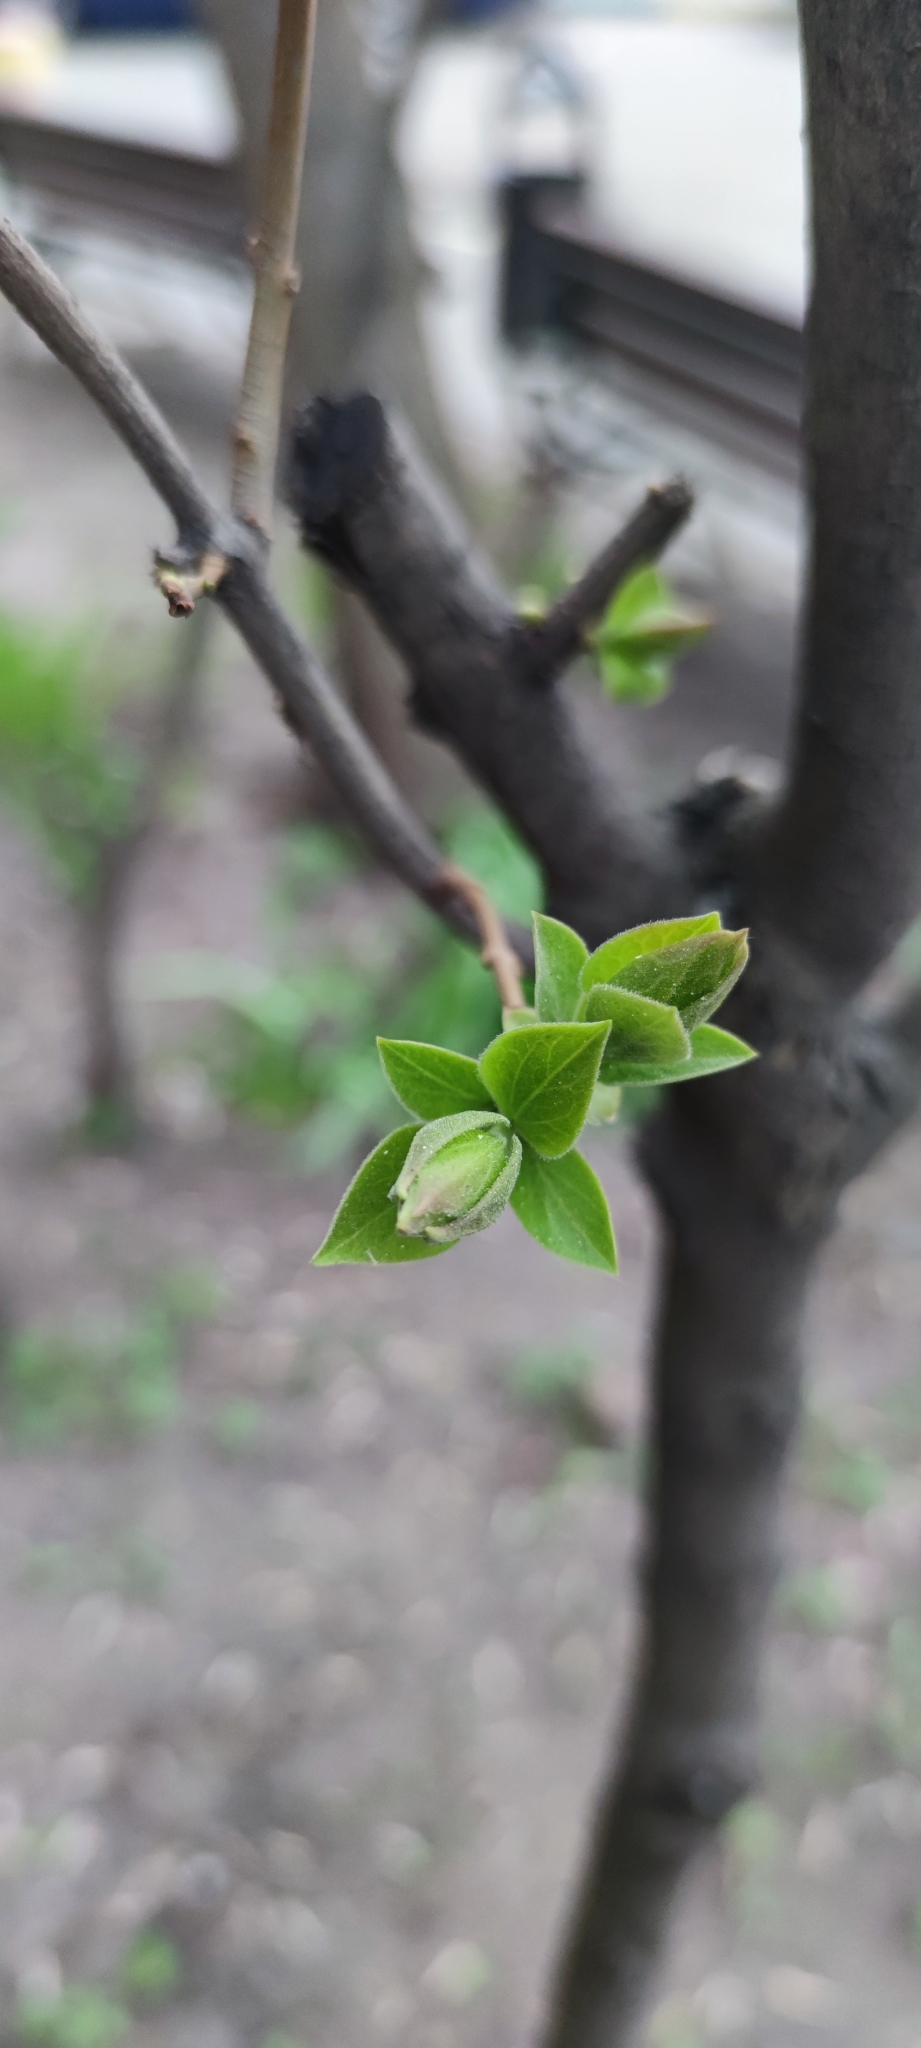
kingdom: Plantae
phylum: Tracheophyta
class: Magnoliopsida
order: Lamiales
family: Oleaceae
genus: Syringa
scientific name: Syringa vulgaris
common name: Common lilac
